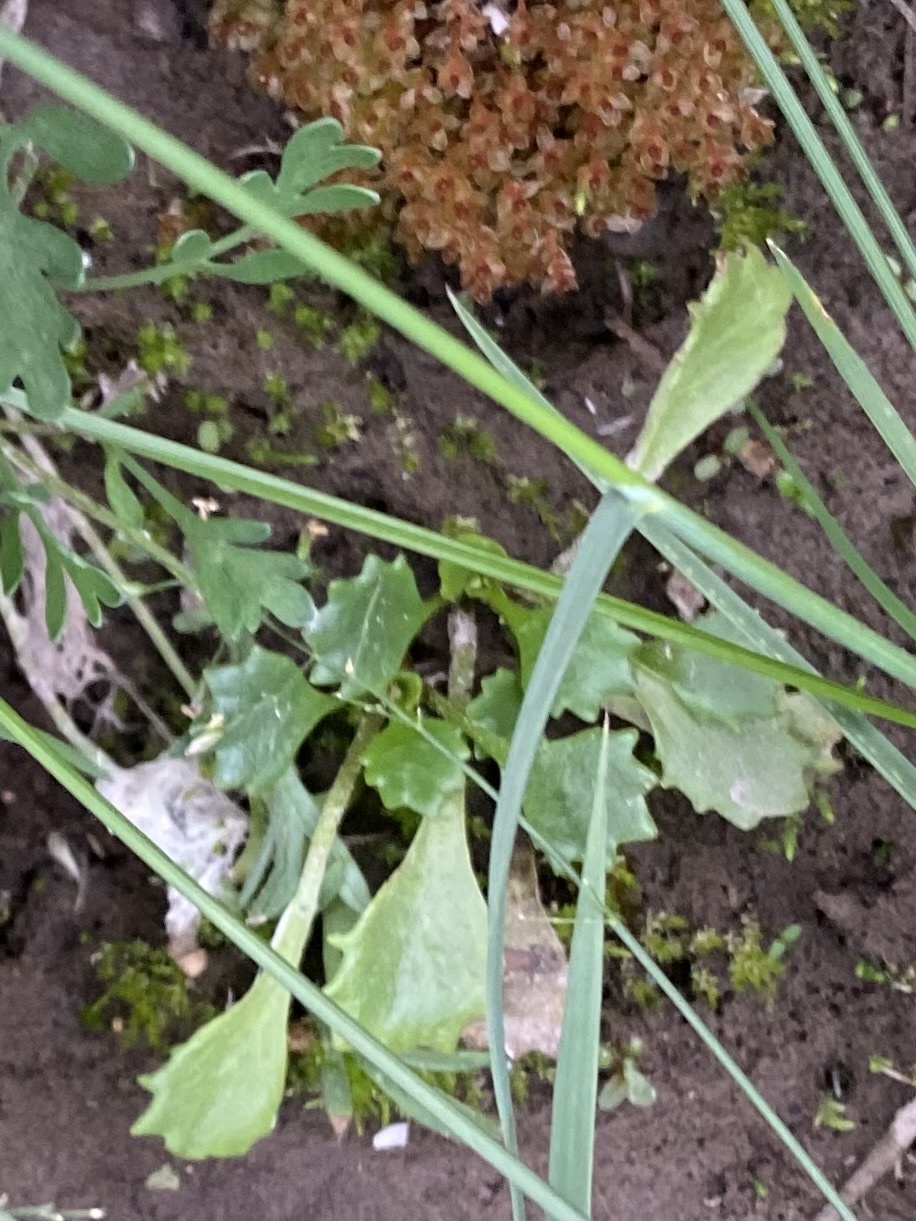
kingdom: Plantae
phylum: Tracheophyta
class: Magnoliopsida
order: Saxifragales
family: Saxifragaceae
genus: Micranthes
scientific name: Micranthes nivalis
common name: Alpine saxifrage
